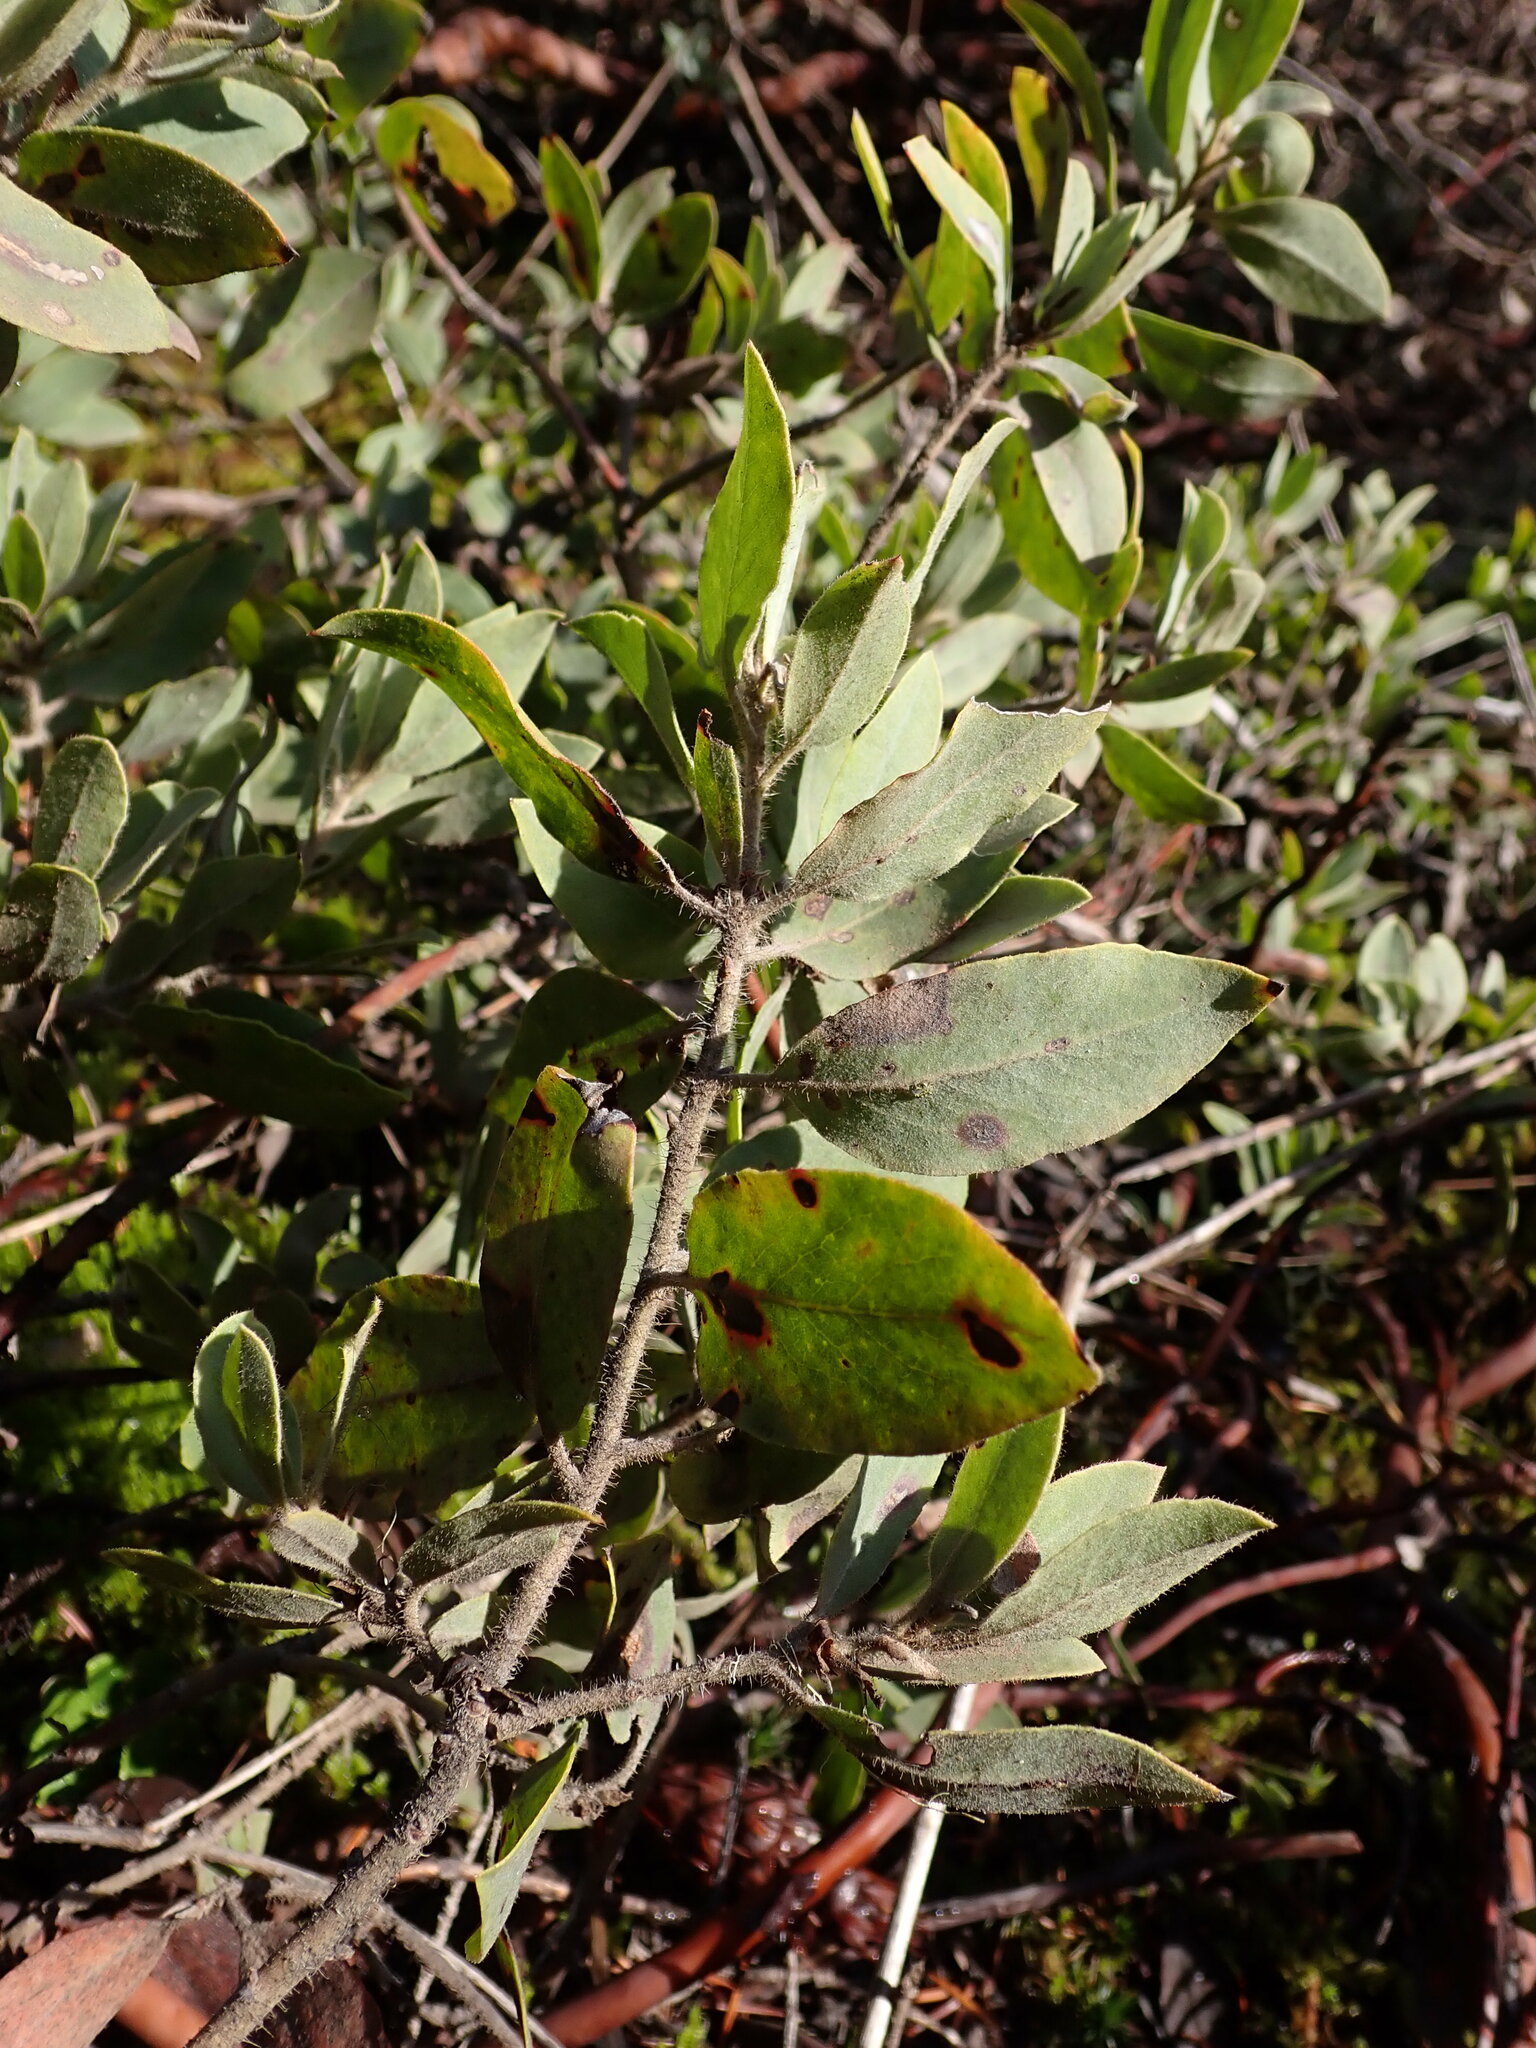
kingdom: Plantae
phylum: Tracheophyta
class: Magnoliopsida
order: Ericales
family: Ericaceae
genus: Arctostaphylos
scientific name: Arctostaphylos columbiana
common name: Bristly bearberry
